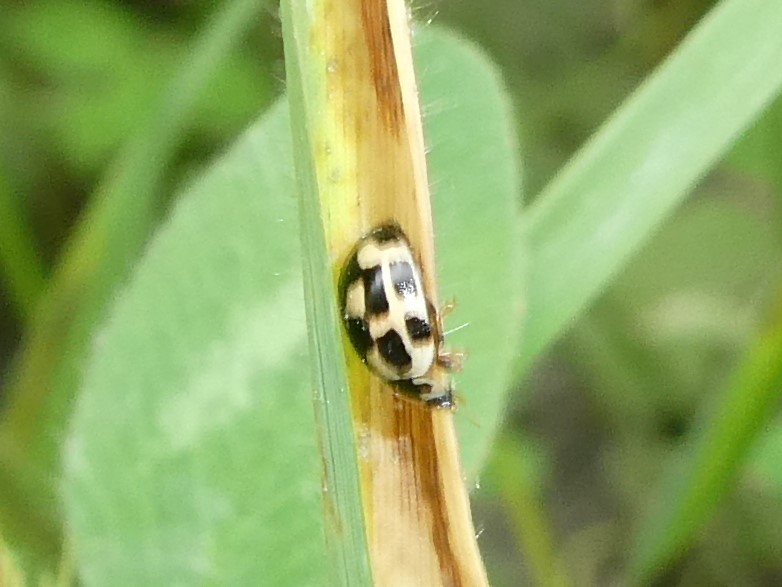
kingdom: Animalia
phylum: Arthropoda
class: Insecta
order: Coleoptera
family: Coccinellidae
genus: Propylaea
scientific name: Propylaea quatuordecimpunctata
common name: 14-spotted ladybird beetle
